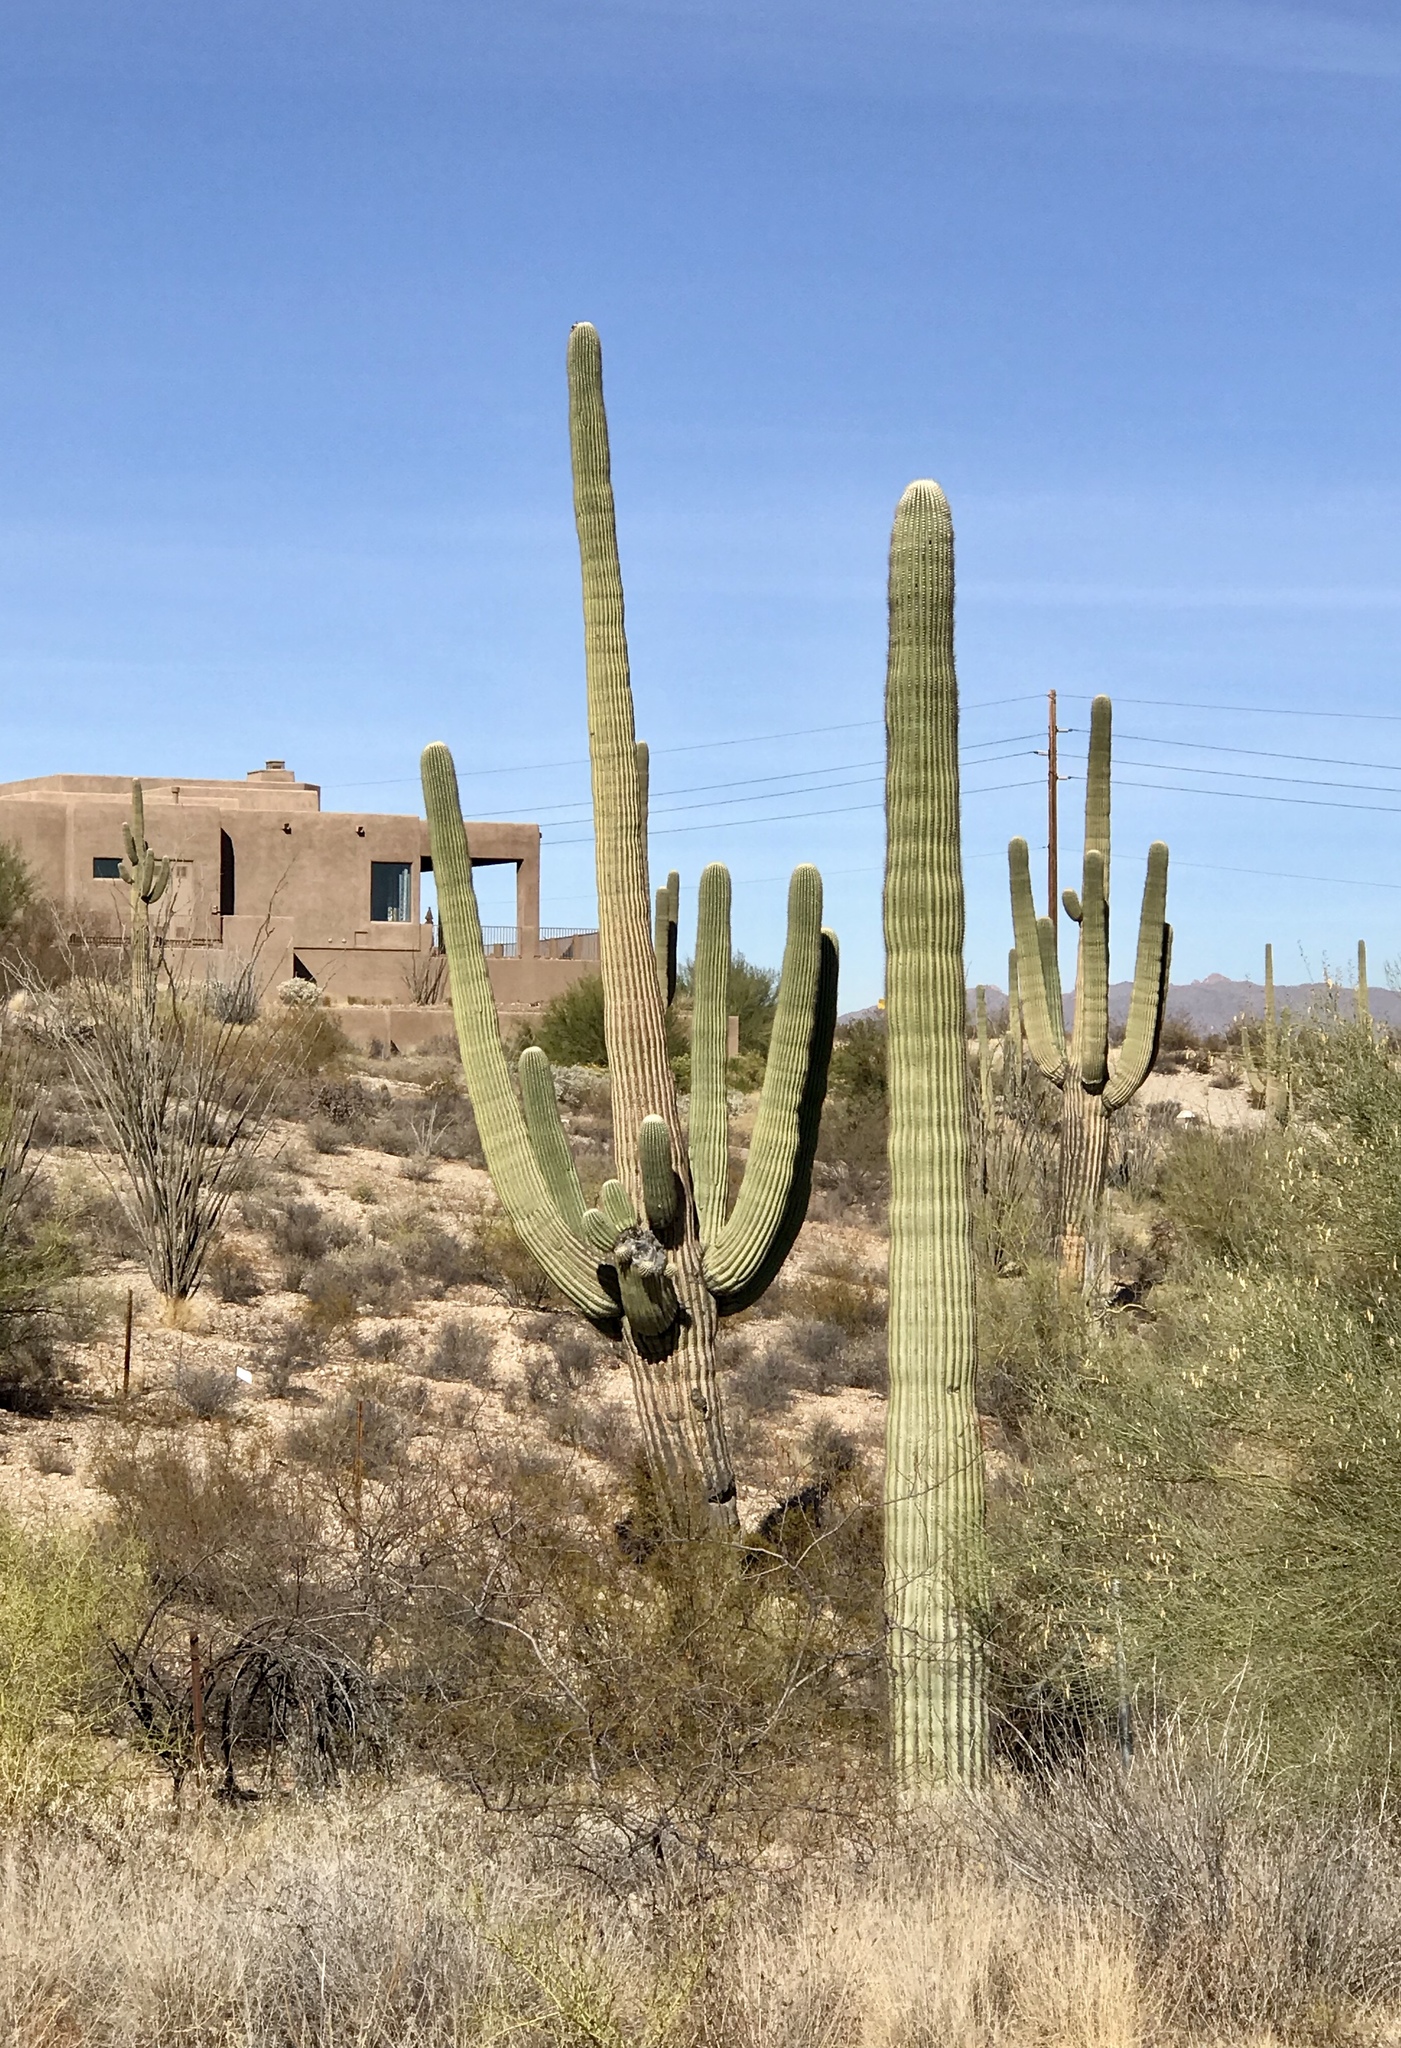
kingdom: Plantae
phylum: Tracheophyta
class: Magnoliopsida
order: Caryophyllales
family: Cactaceae
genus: Carnegiea
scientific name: Carnegiea gigantea
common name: Saguaro
